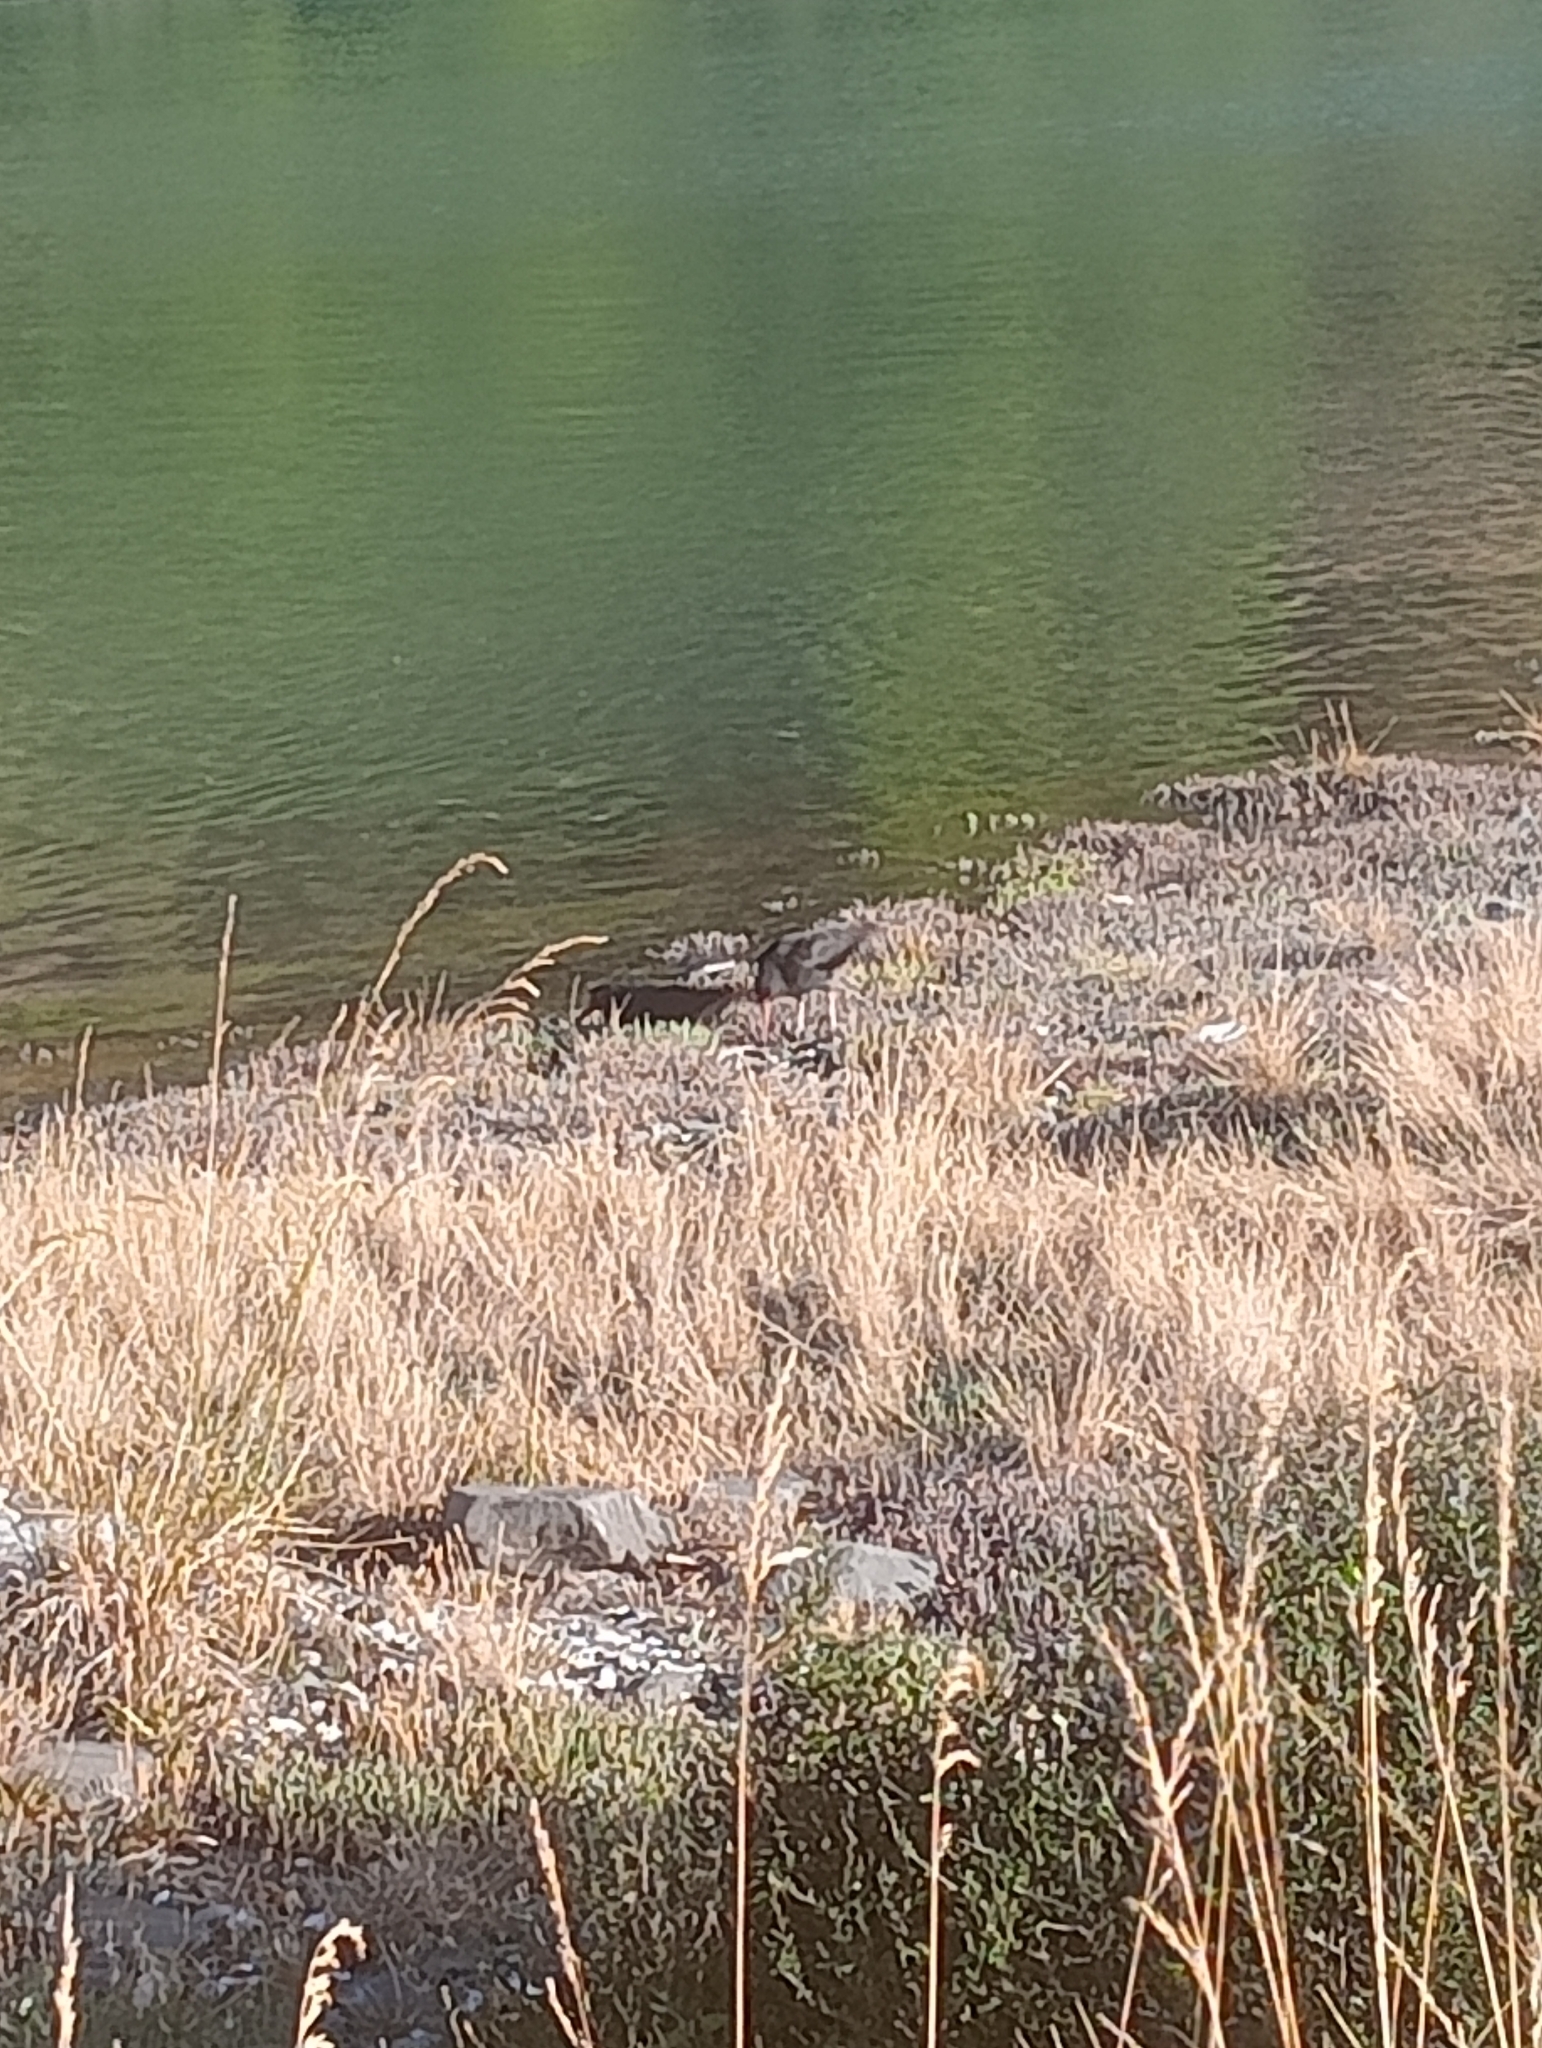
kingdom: Animalia
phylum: Chordata
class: Aves
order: Charadriiformes
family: Haematopodidae
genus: Haematopus
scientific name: Haematopus unicolor
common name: Variable oystercatcher
